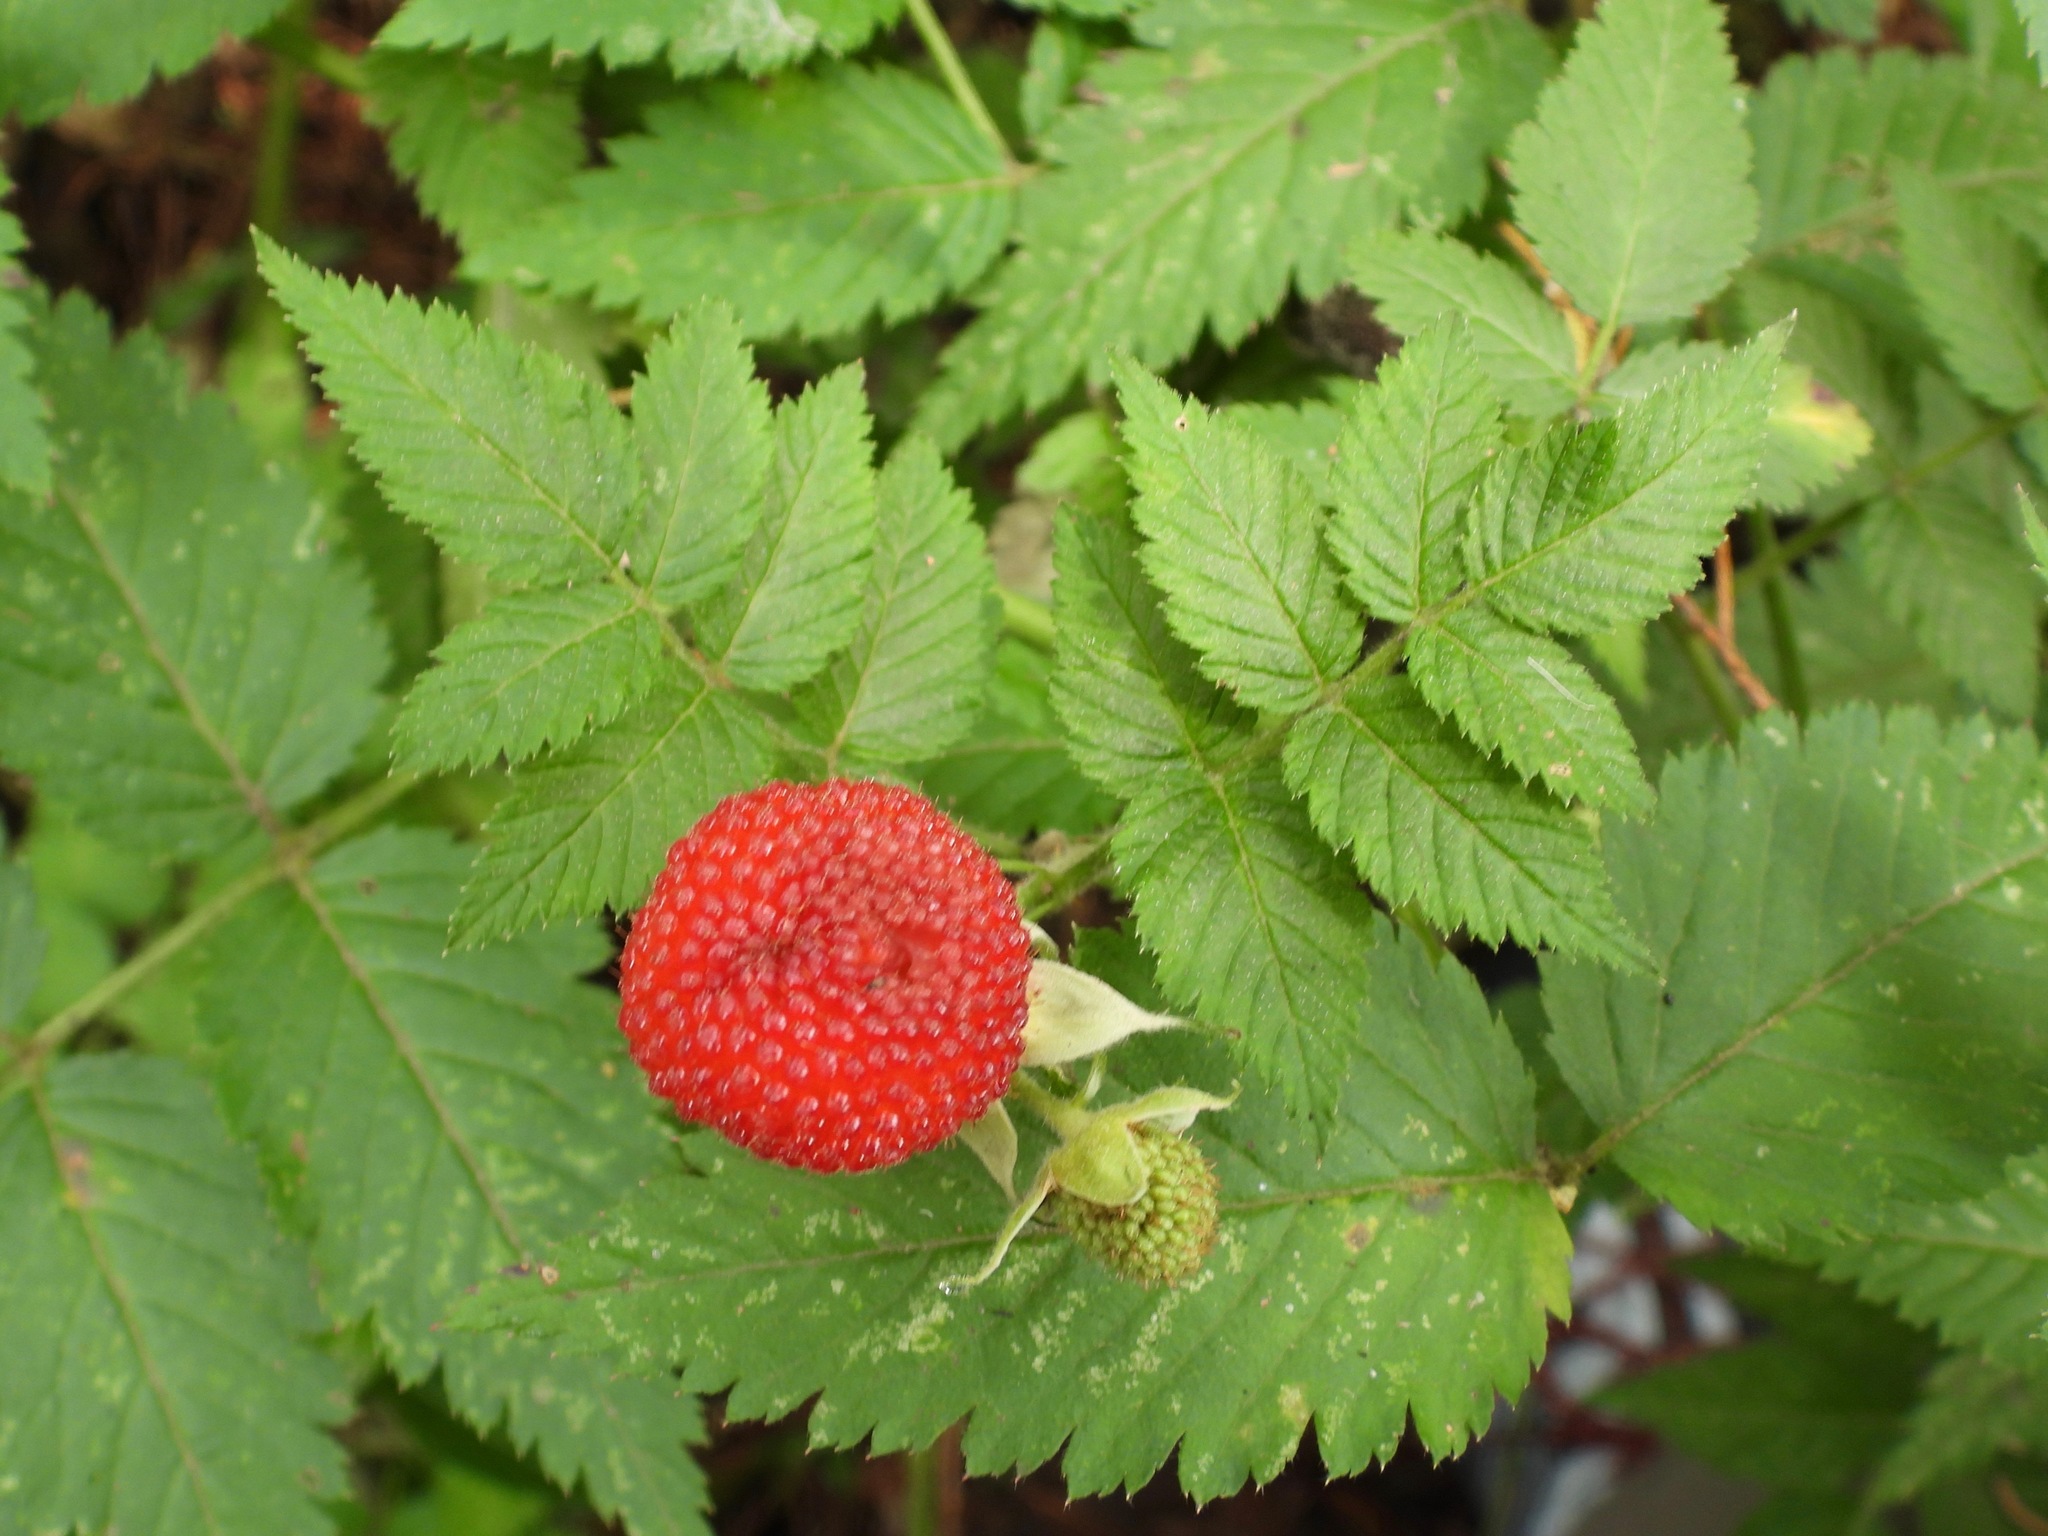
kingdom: Plantae
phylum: Tracheophyta
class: Magnoliopsida
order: Rosales
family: Rosaceae
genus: Rubus
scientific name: Rubus rosifolius
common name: Roseleaf raspberry
